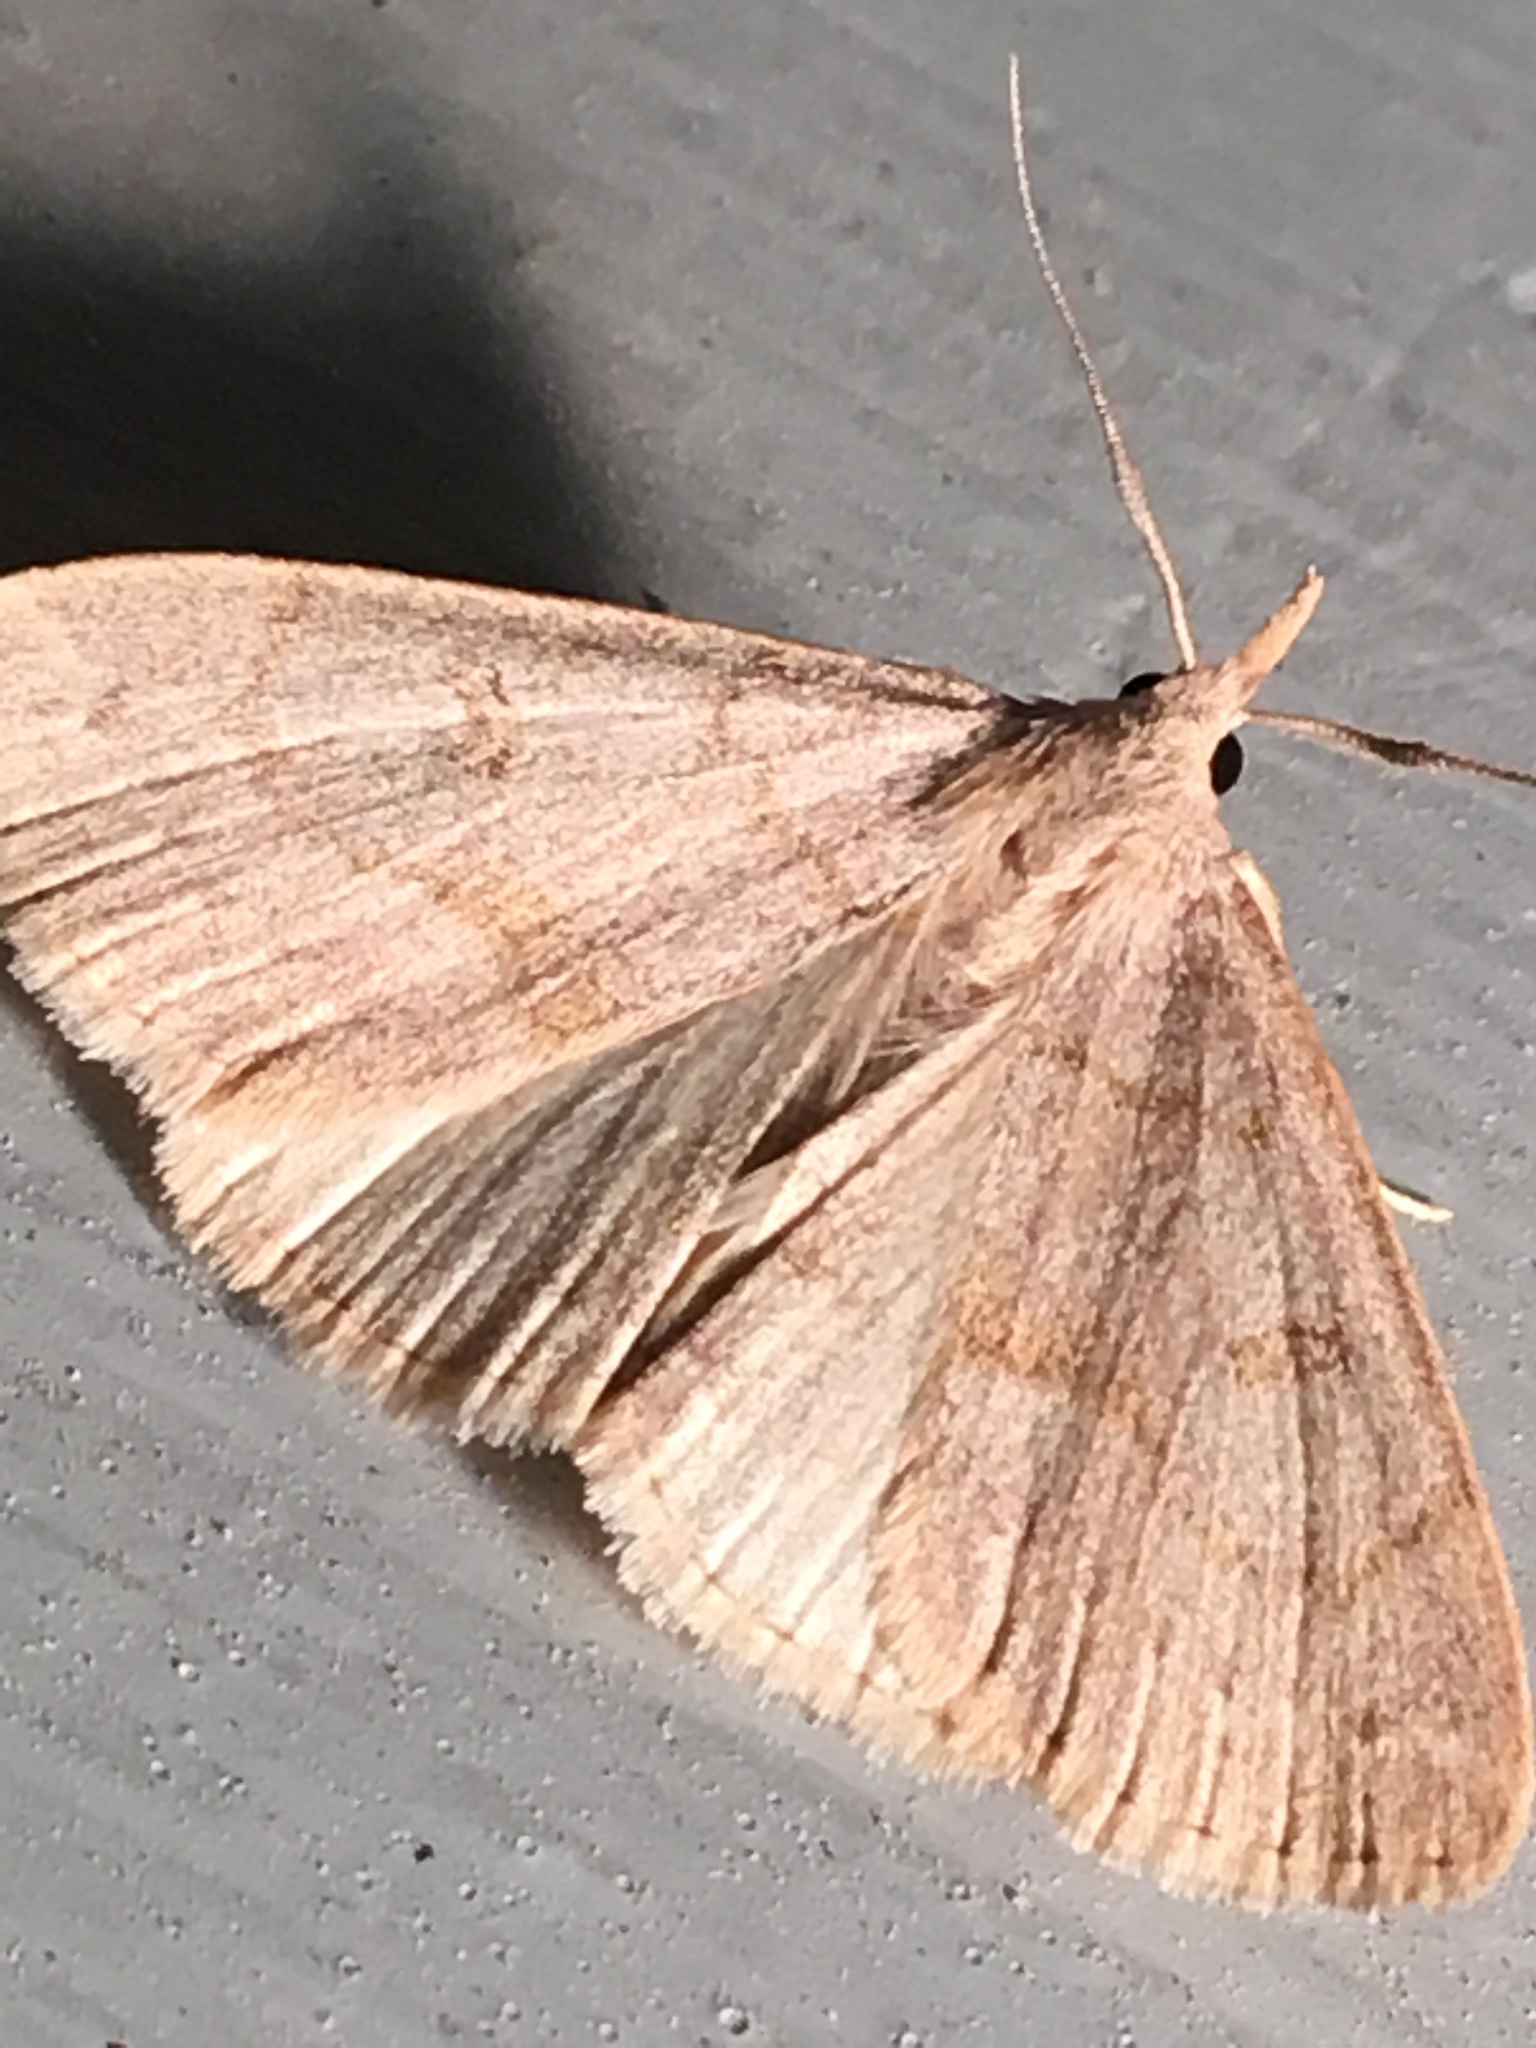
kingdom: Animalia
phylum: Arthropoda
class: Insecta
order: Lepidoptera
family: Erebidae
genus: Macrochilo
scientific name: Macrochilo morbidalis
